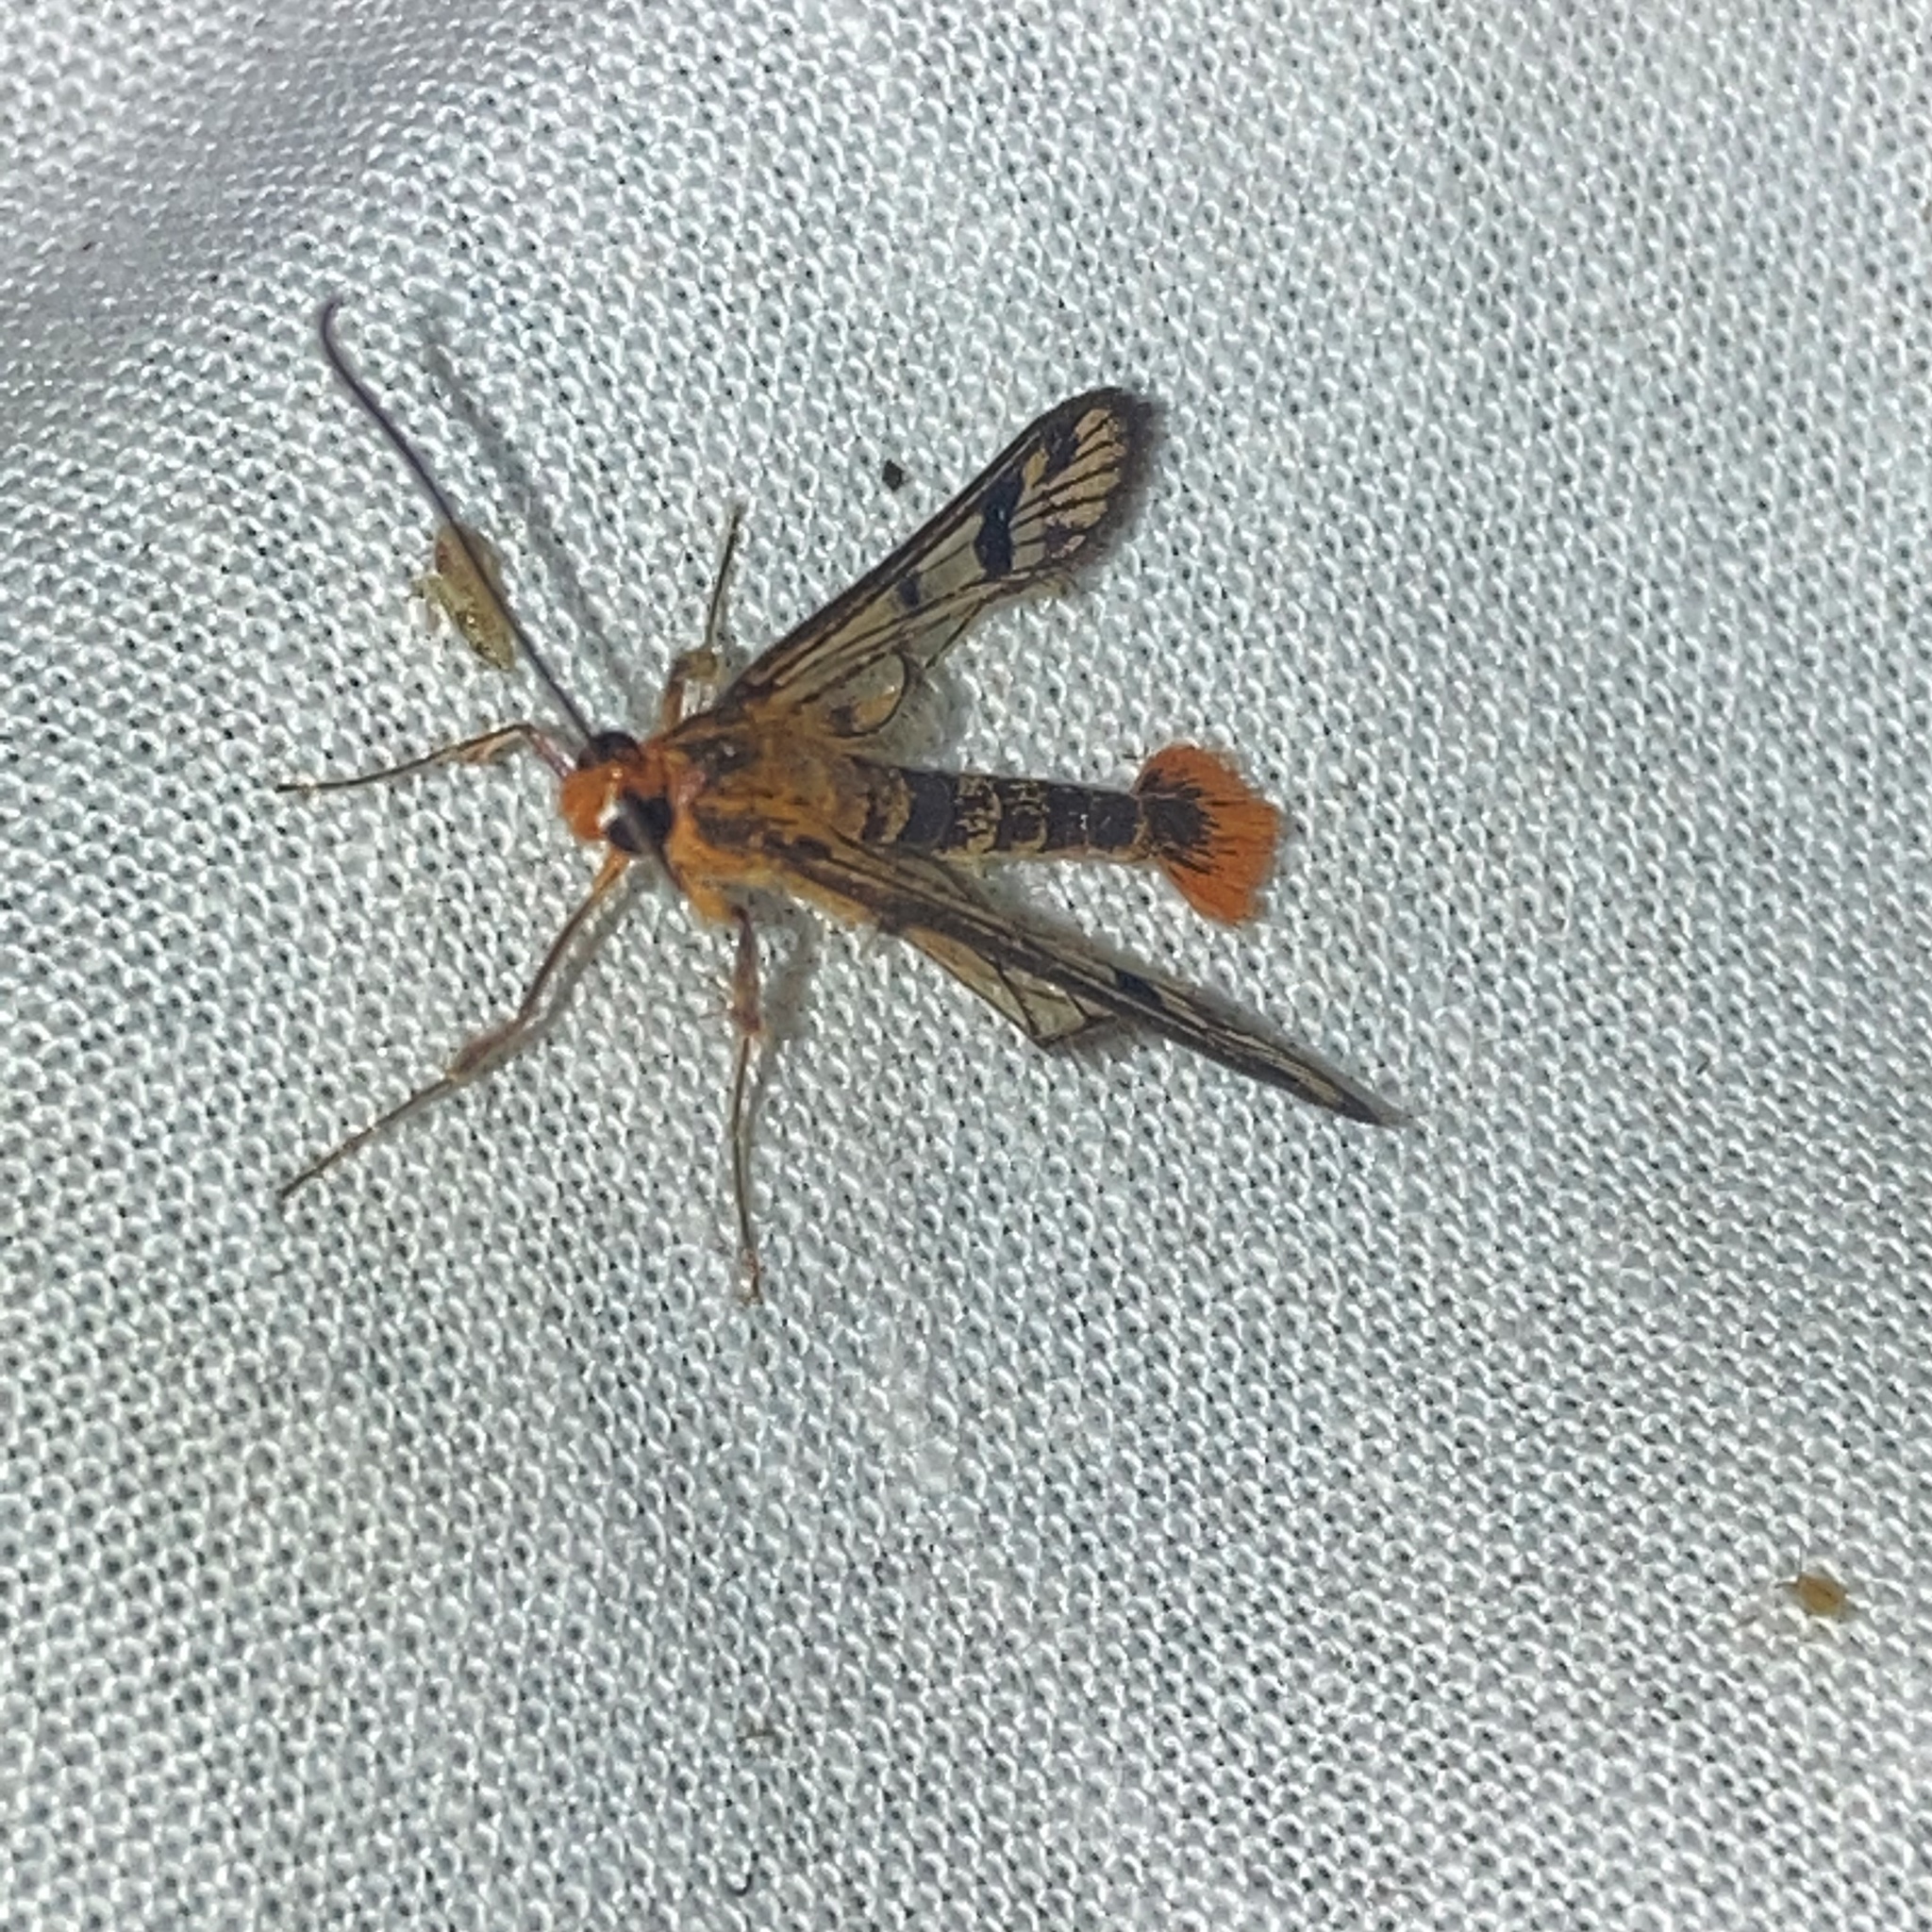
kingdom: Animalia
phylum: Arthropoda
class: Insecta
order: Lepidoptera
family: Sesiidae
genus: Synanthedon
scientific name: Synanthedon acerni
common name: Maple callus borer moth
